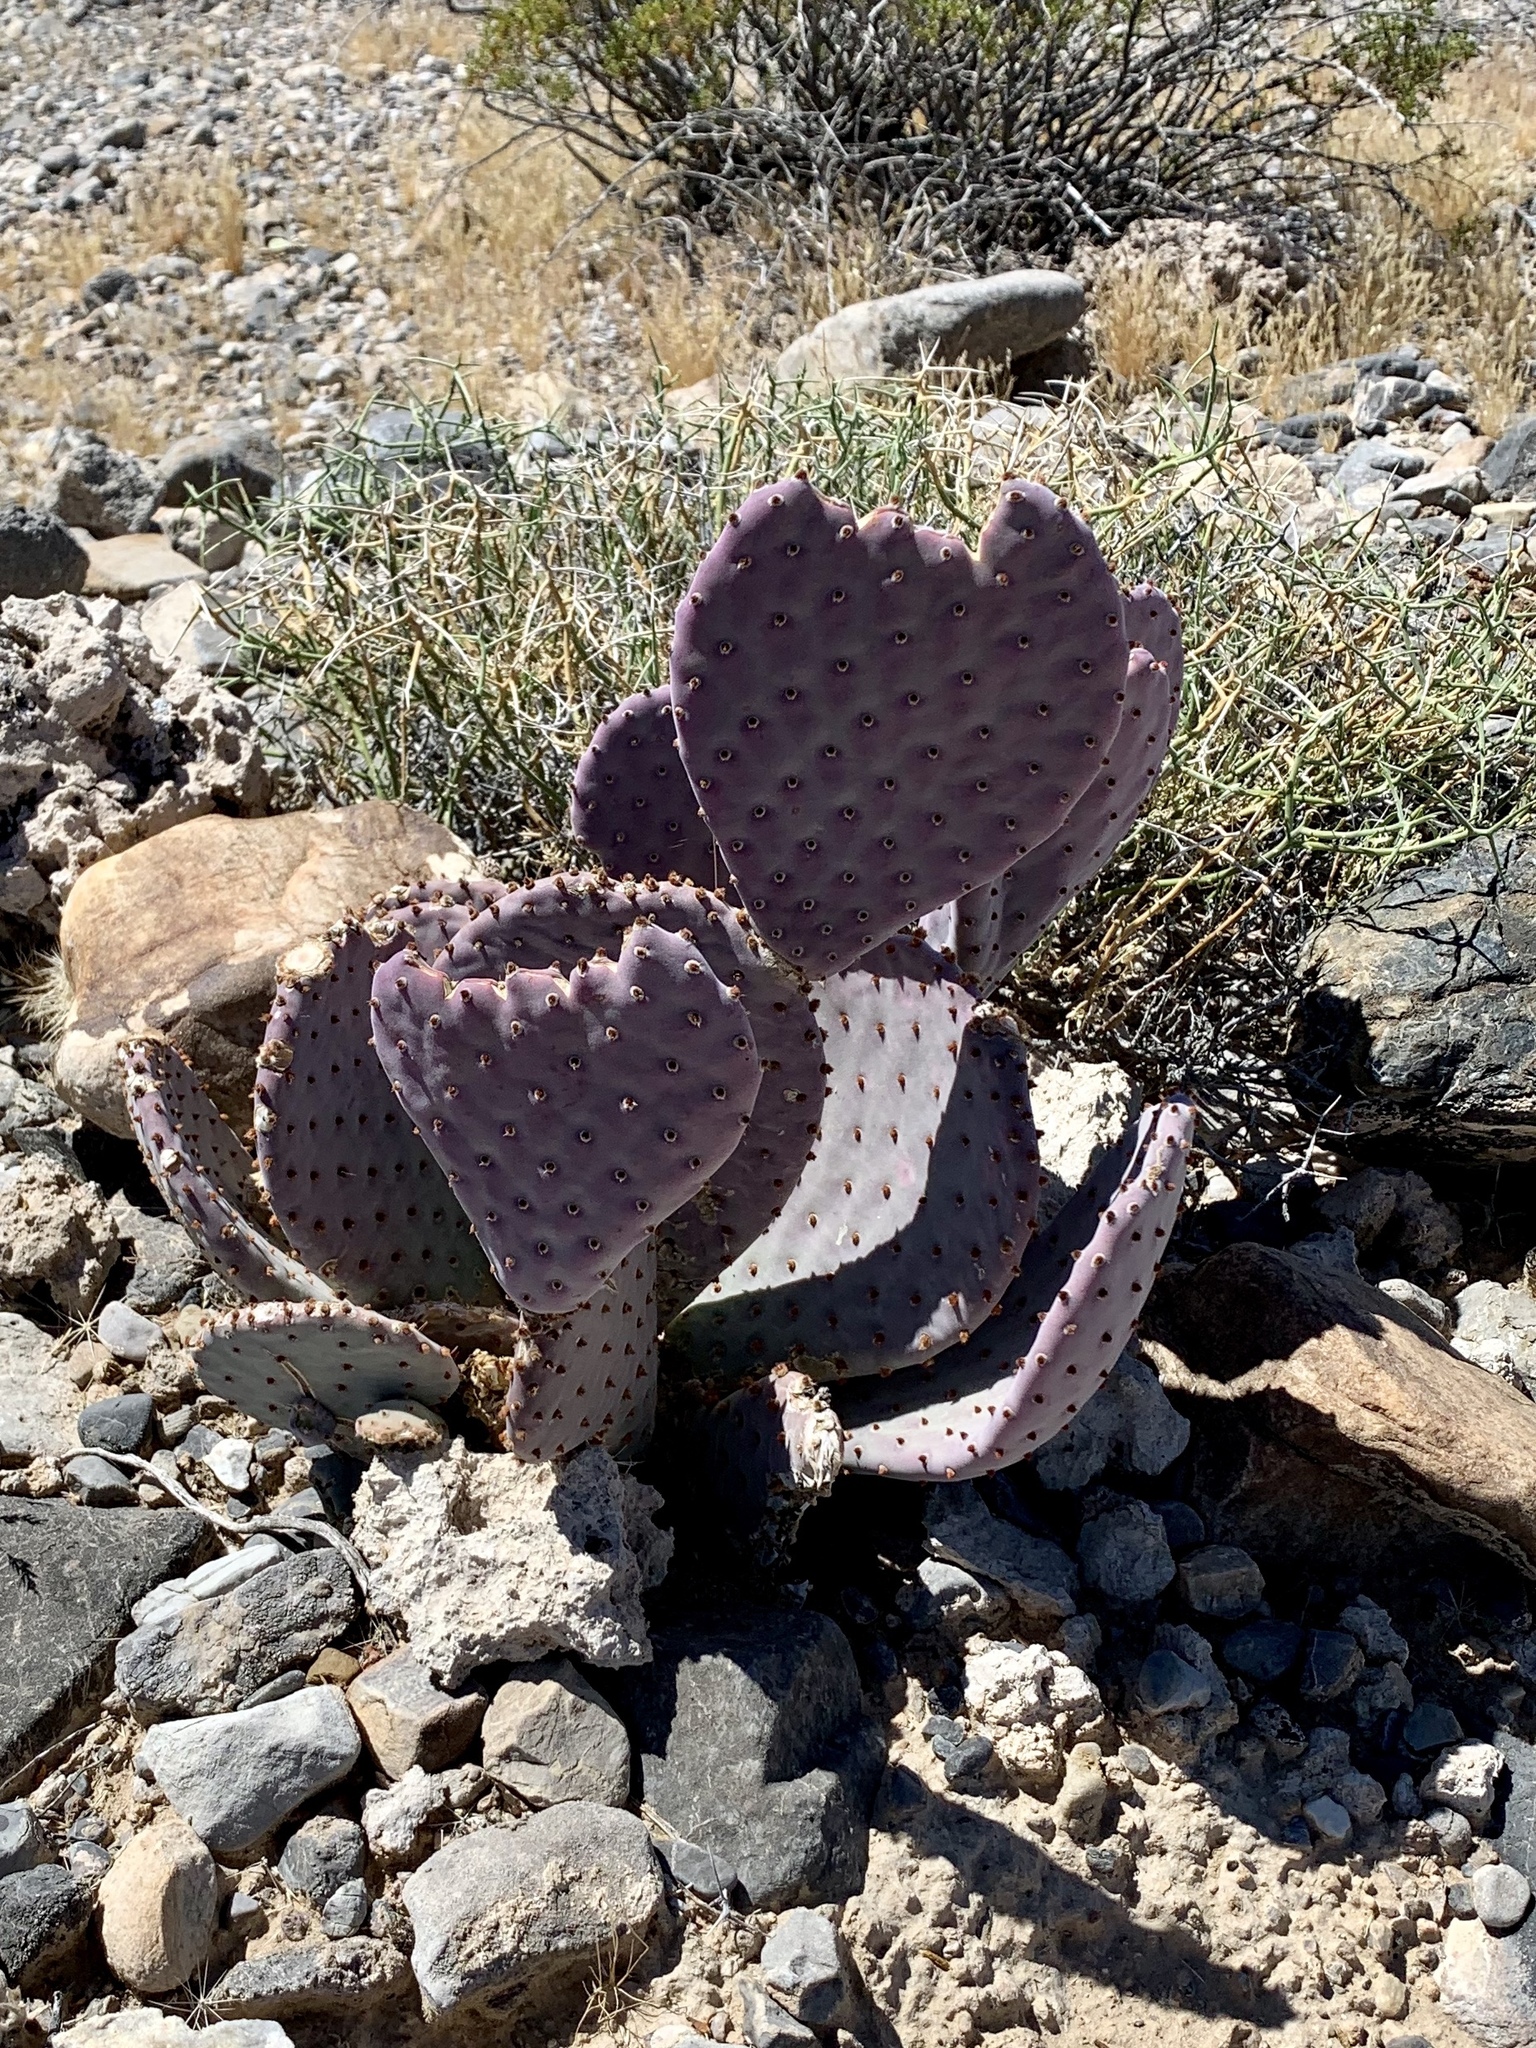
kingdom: Plantae
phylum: Tracheophyta
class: Magnoliopsida
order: Caryophyllales
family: Cactaceae
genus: Opuntia
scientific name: Opuntia basilaris
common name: Beavertail prickly-pear
